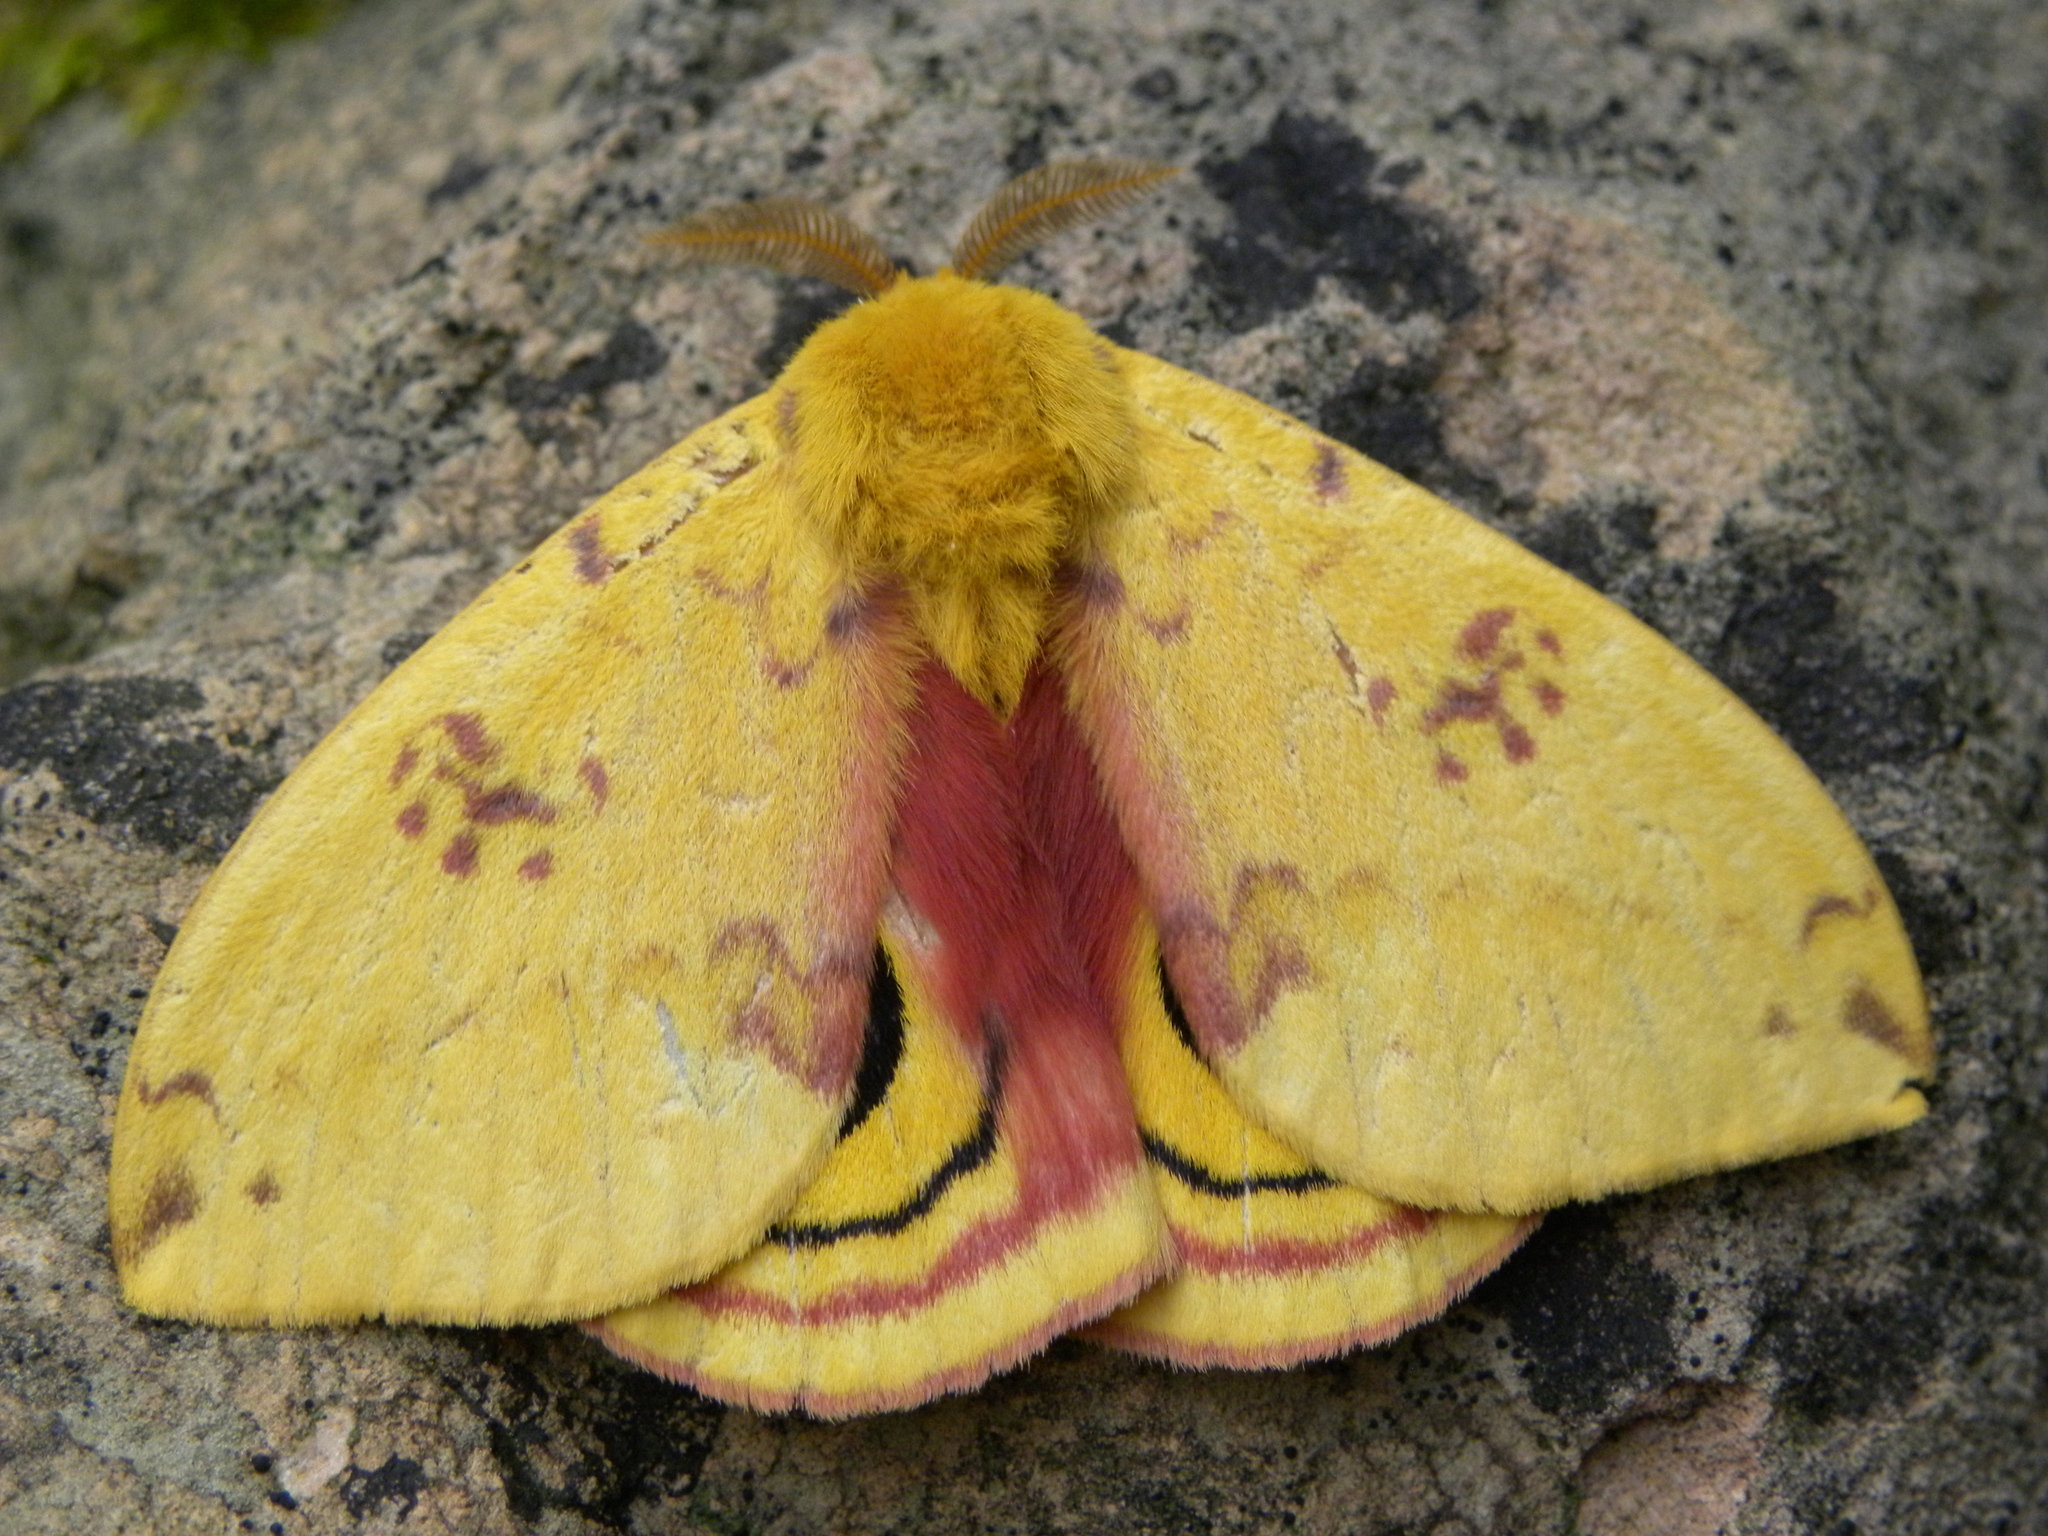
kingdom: Animalia
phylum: Arthropoda
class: Insecta
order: Lepidoptera
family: Saturniidae
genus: Automeris
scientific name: Automeris io
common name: Io moth
